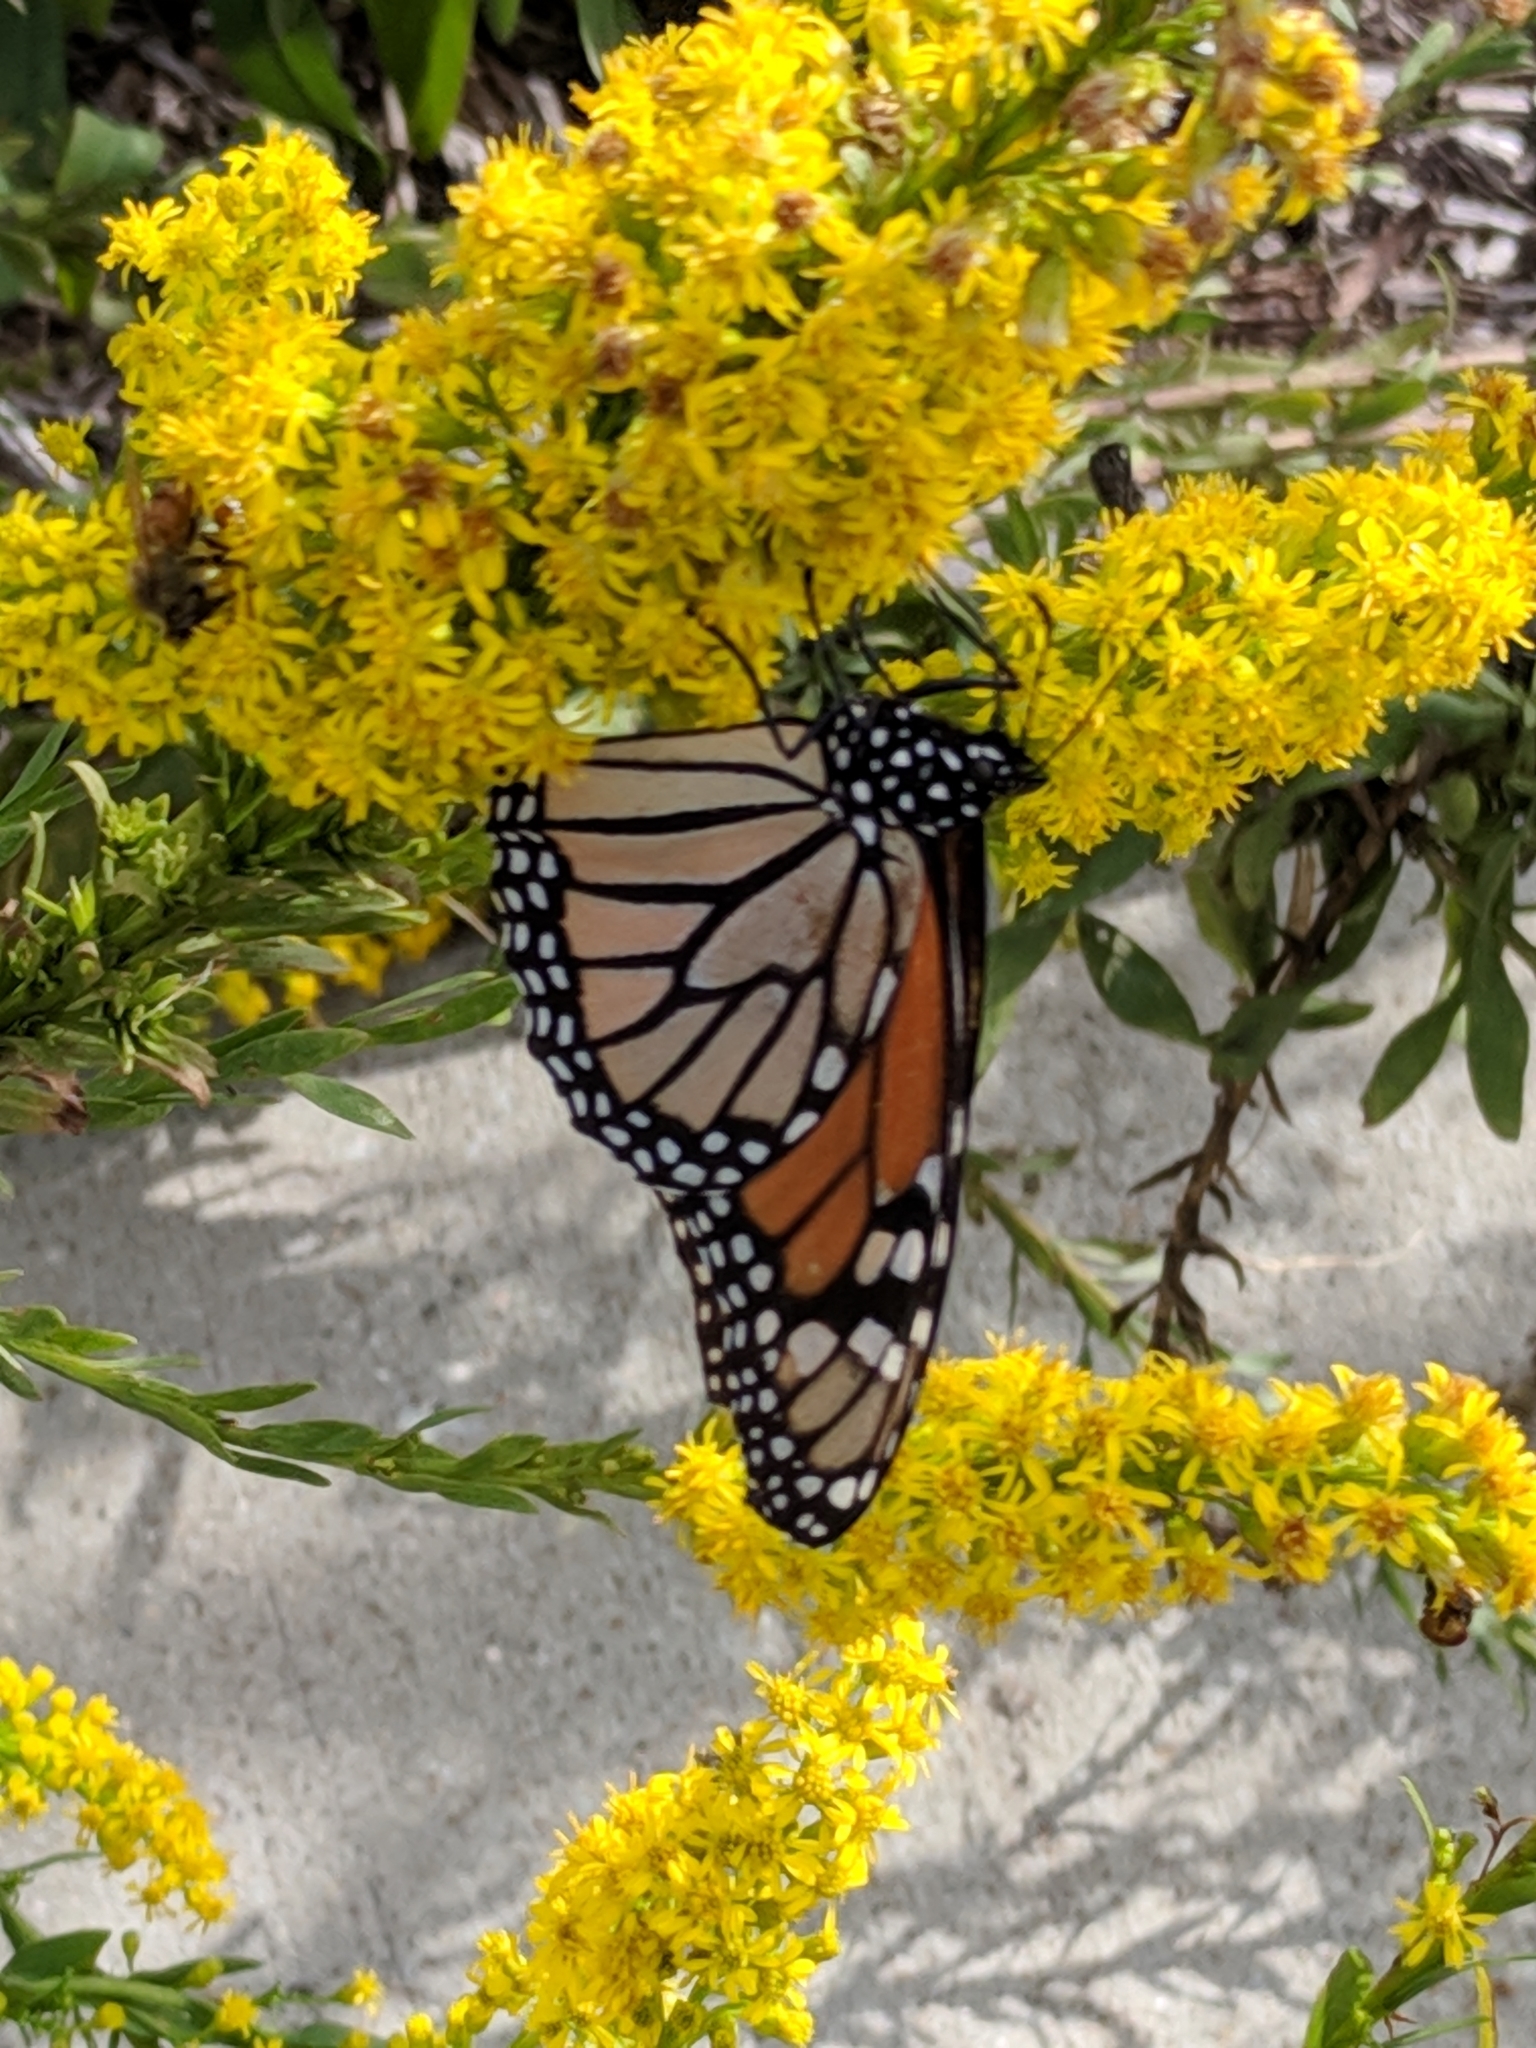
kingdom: Animalia
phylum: Arthropoda
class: Insecta
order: Lepidoptera
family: Nymphalidae
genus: Danaus
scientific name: Danaus plexippus
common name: Monarch
